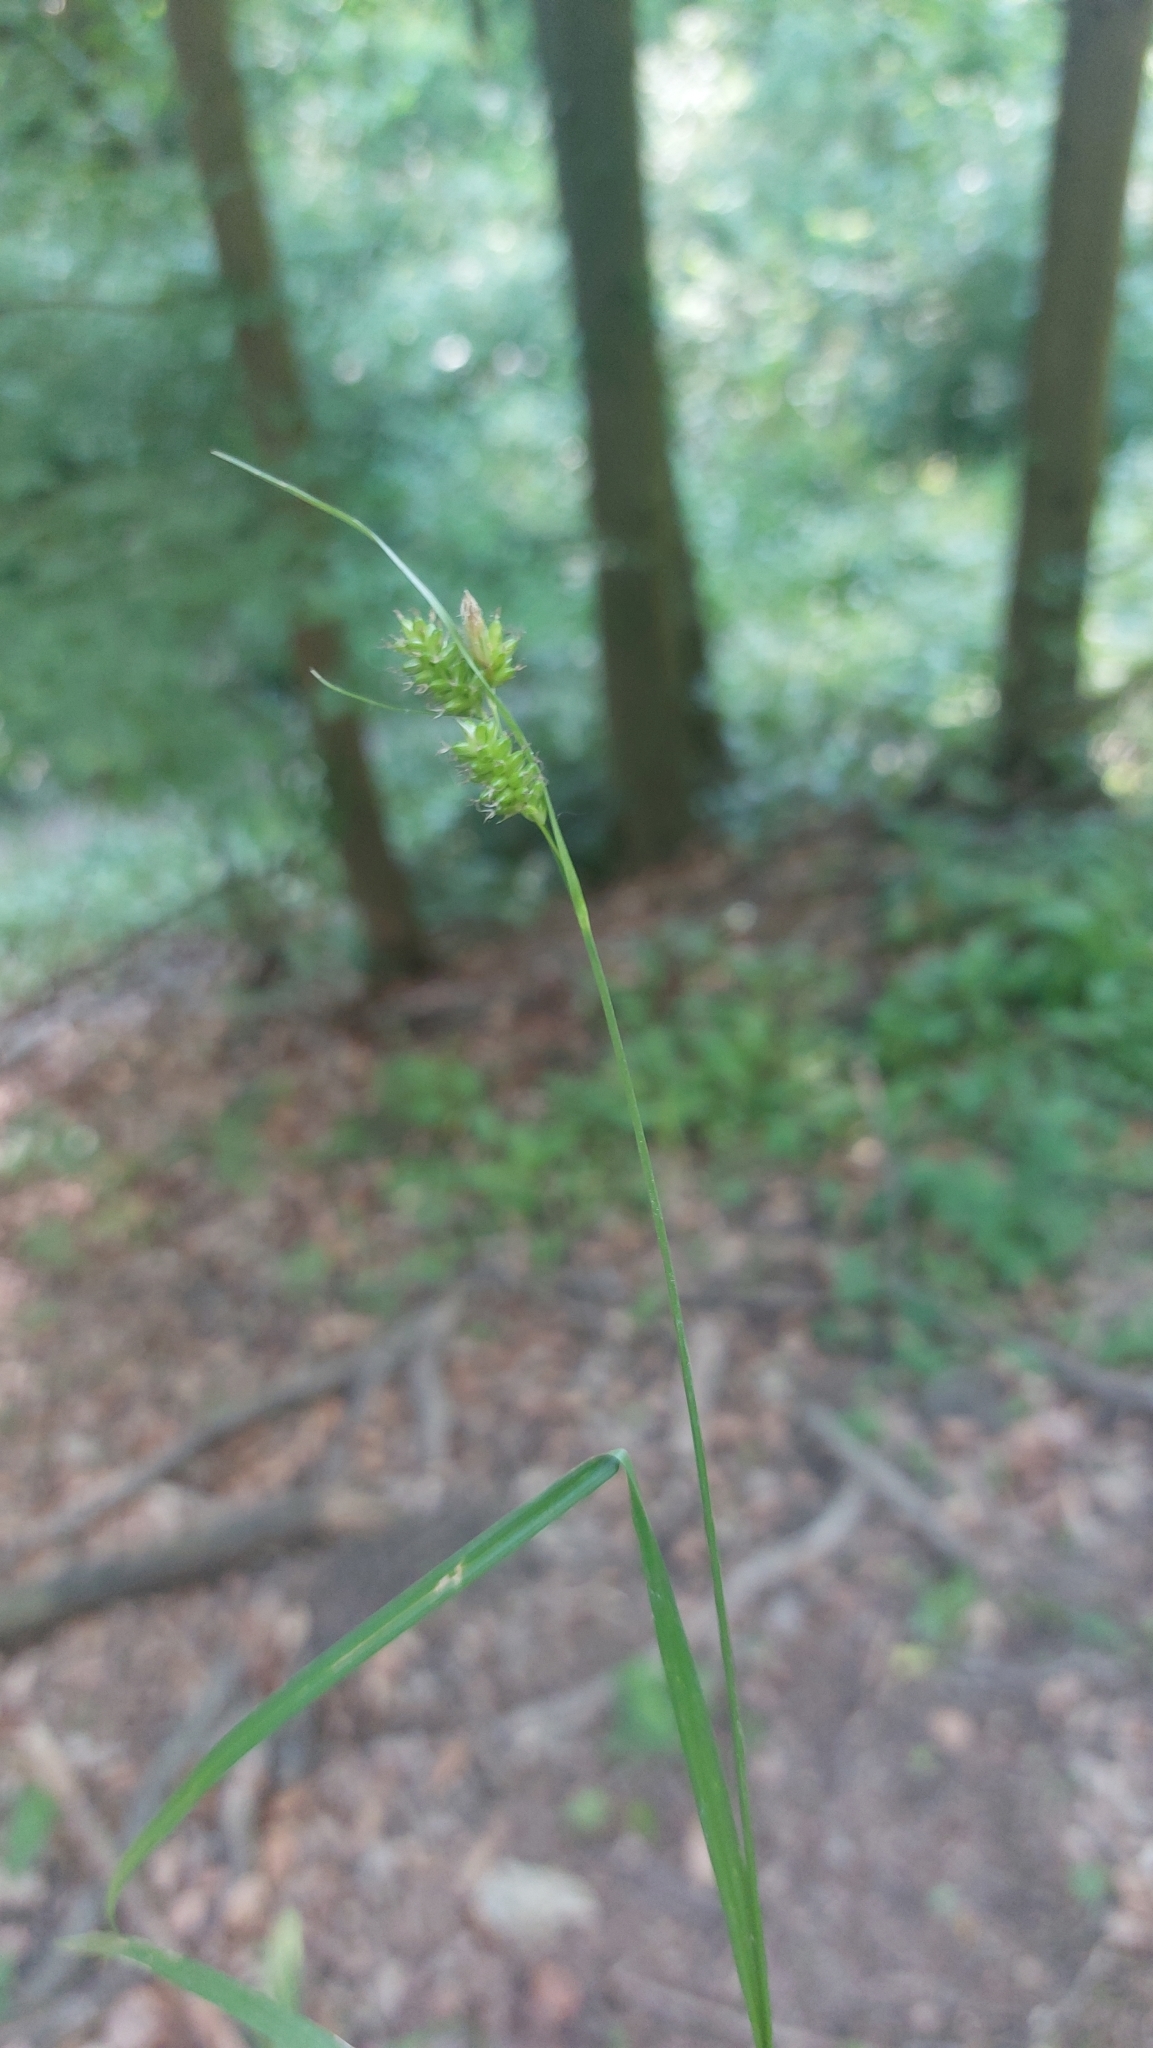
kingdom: Plantae
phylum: Tracheophyta
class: Liliopsida
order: Poales
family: Cyperaceae
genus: Carex
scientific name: Carex pallescens
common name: Pale sedge
